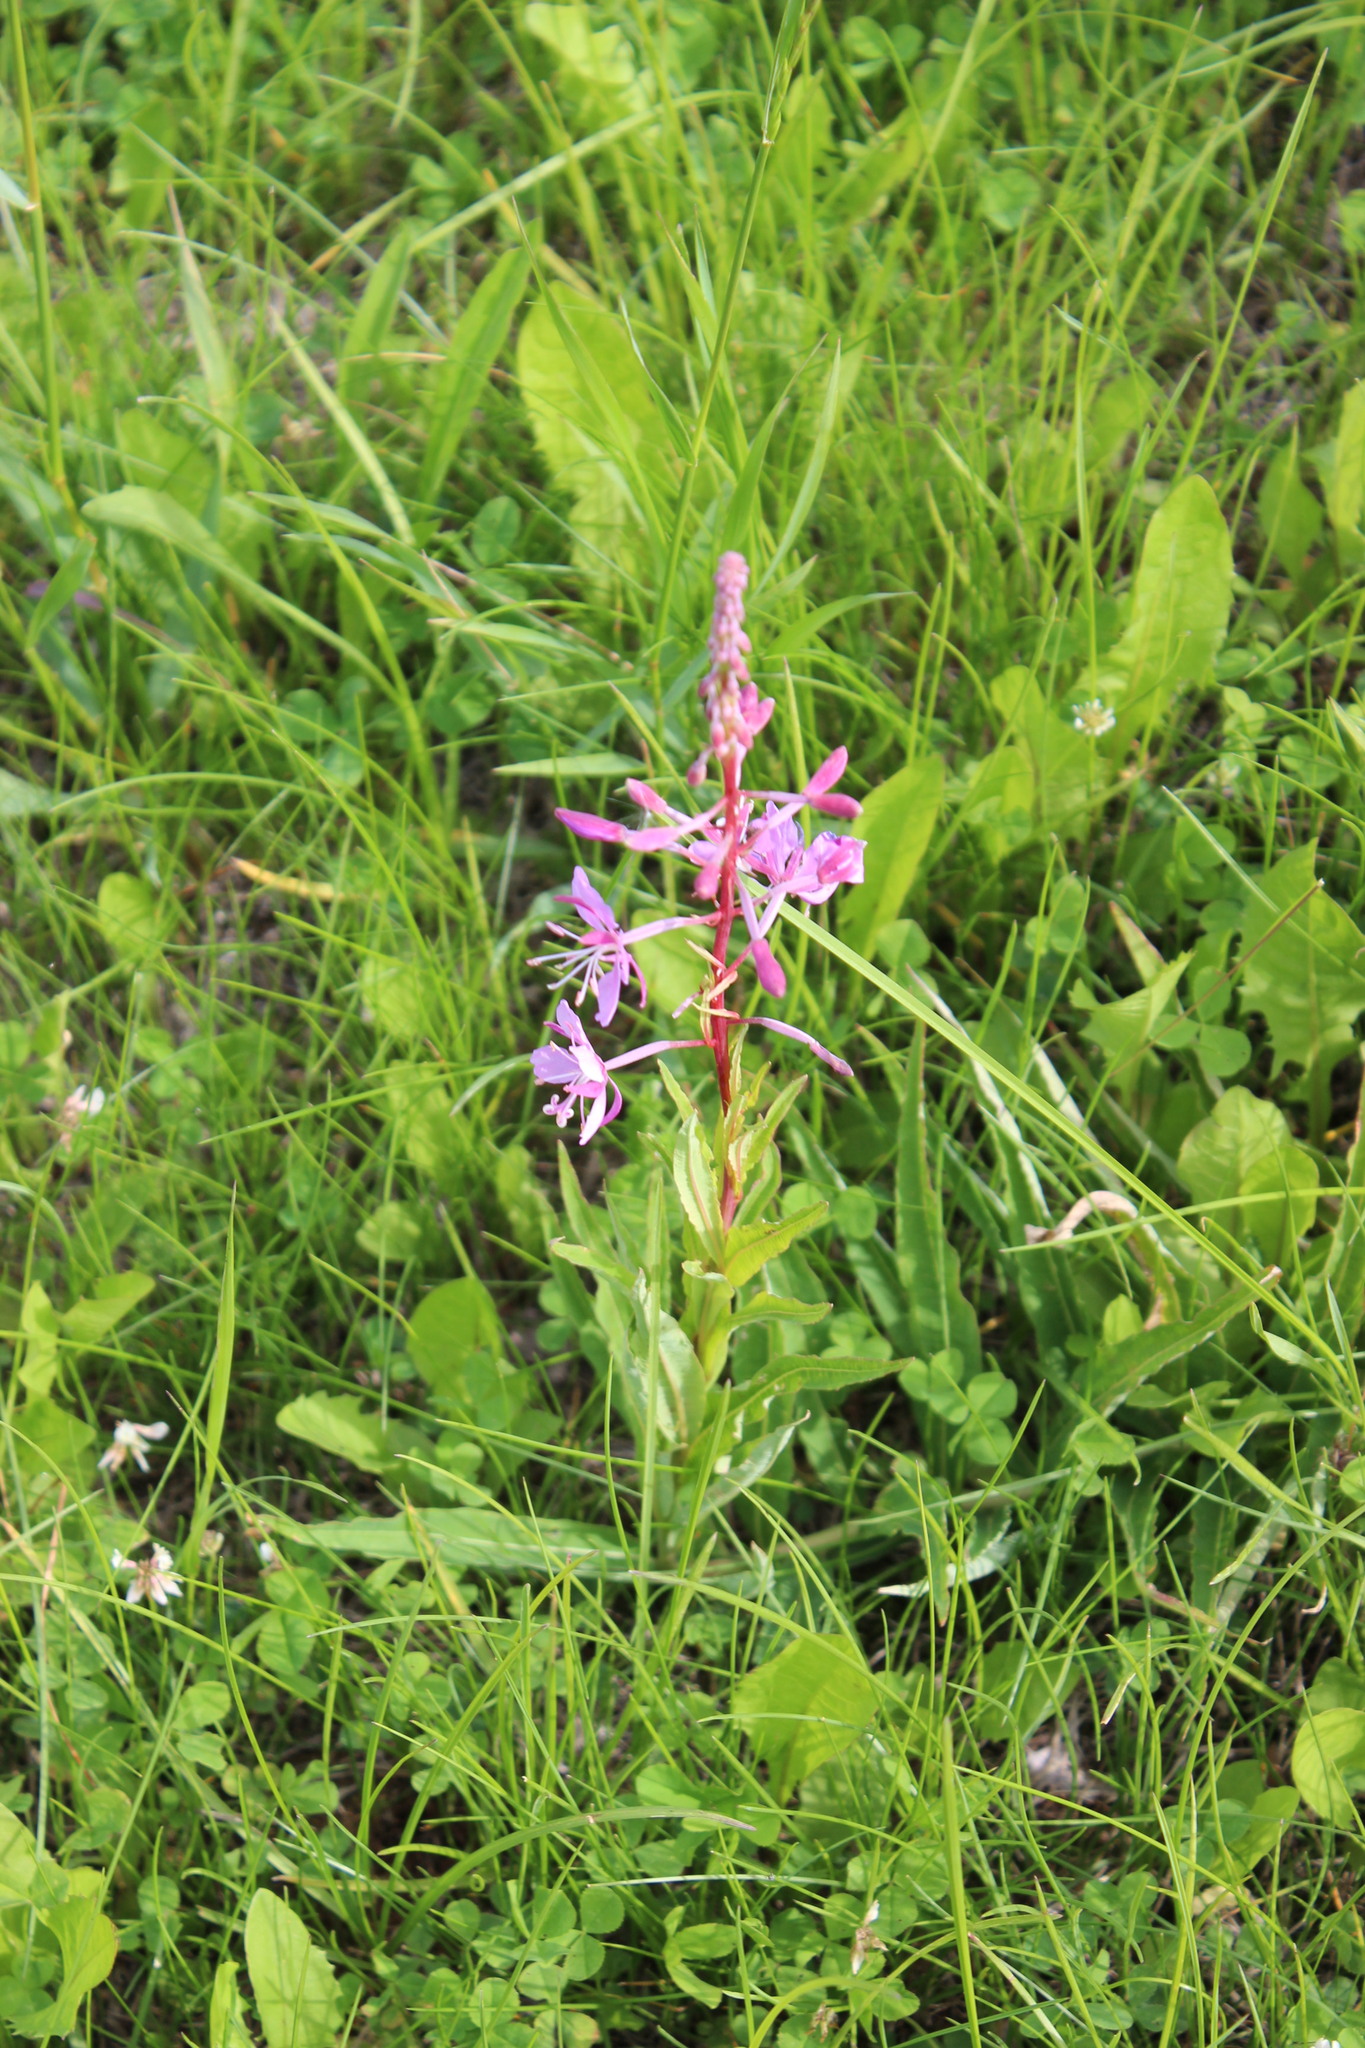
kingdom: Plantae
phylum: Tracheophyta
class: Magnoliopsida
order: Myrtales
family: Onagraceae
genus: Chamaenerion
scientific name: Chamaenerion angustifolium
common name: Fireweed
